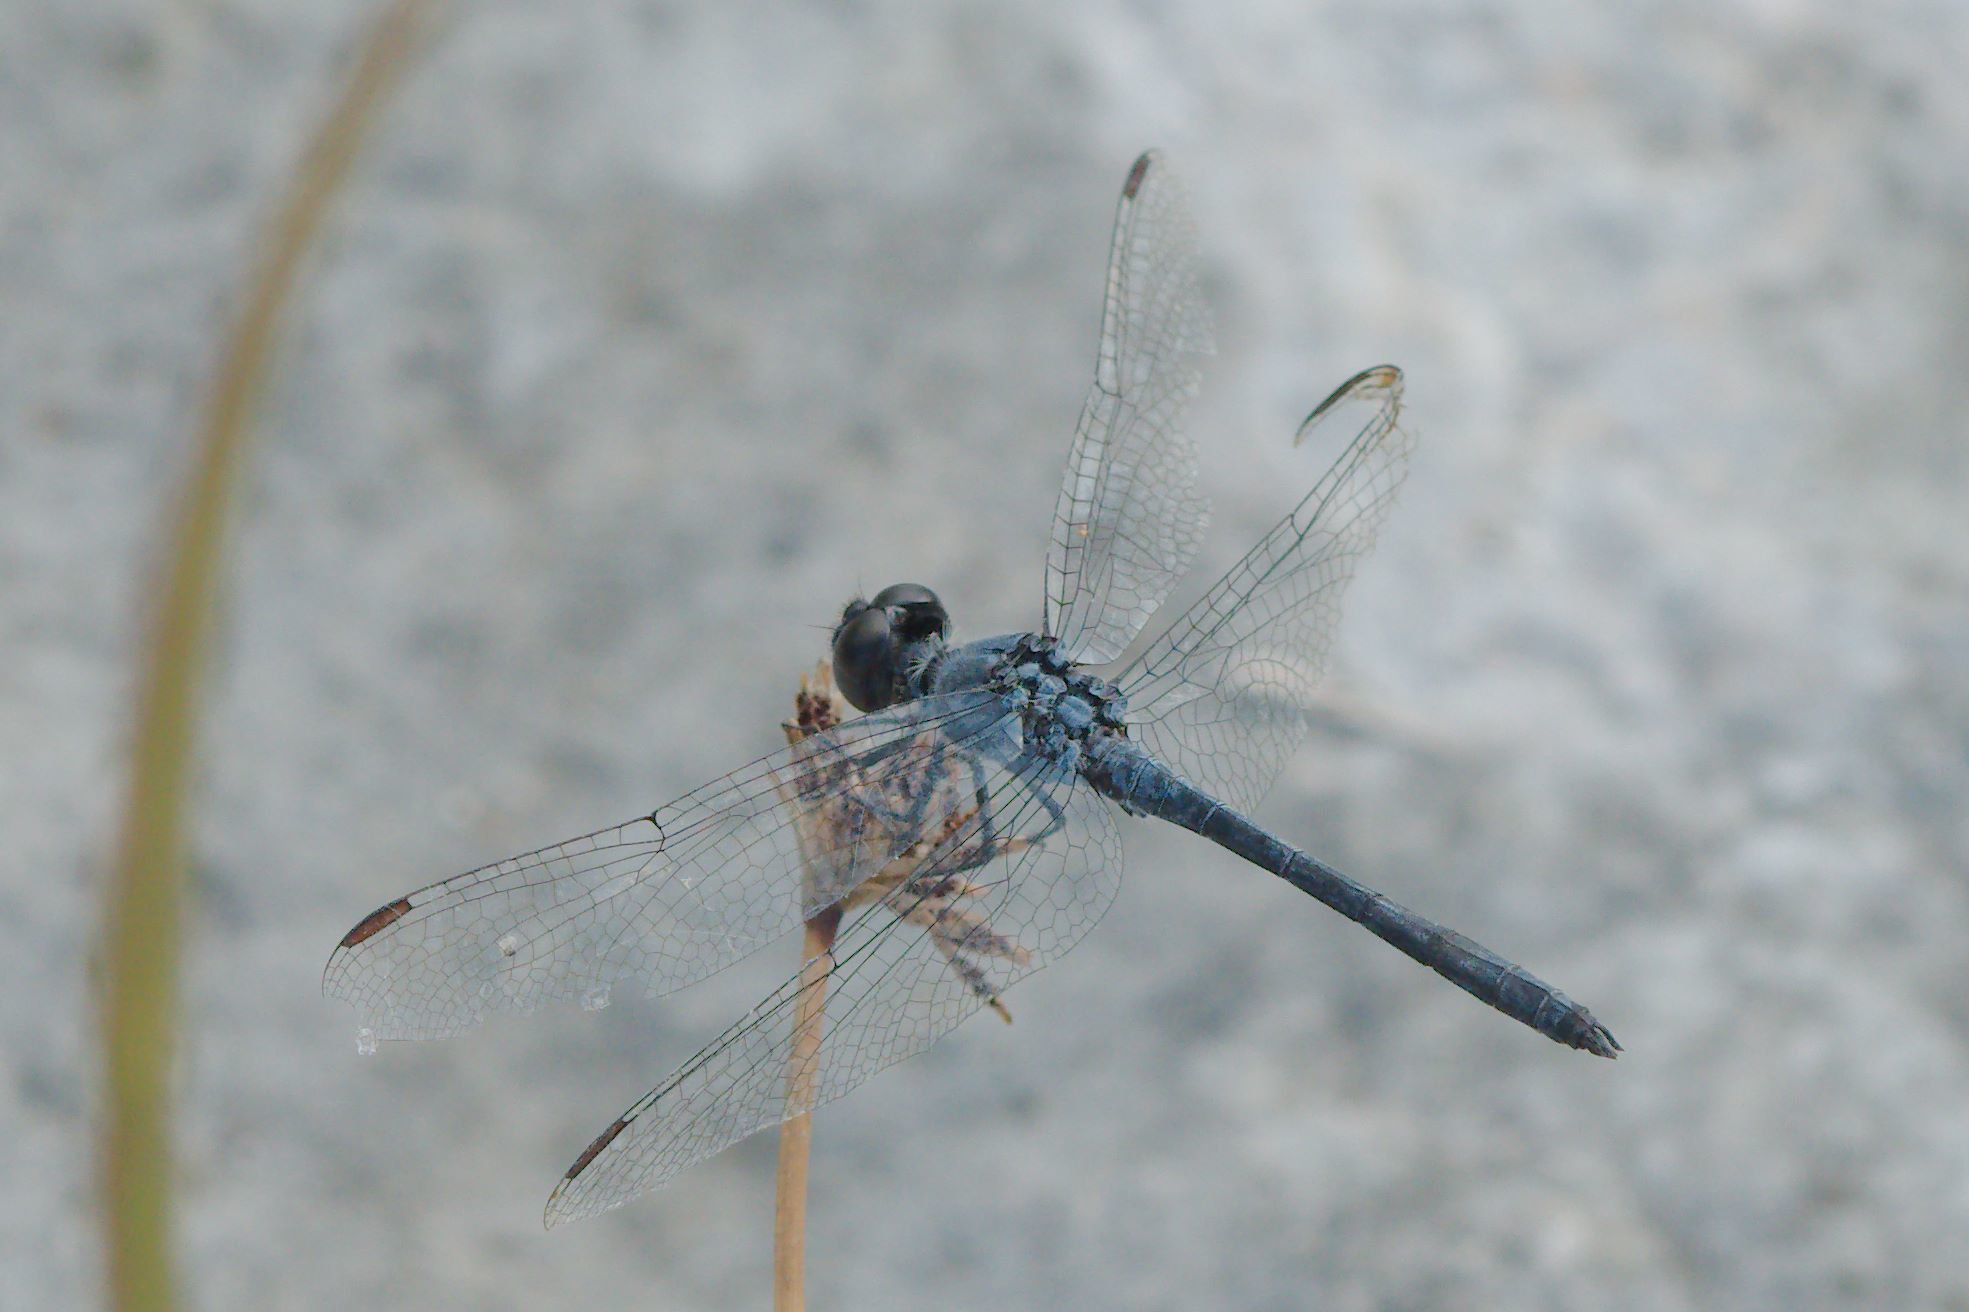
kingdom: Animalia
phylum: Arthropoda
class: Insecta
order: Odonata
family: Libellulidae
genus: Erythrodiplax
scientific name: Erythrodiplax berenice
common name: Seaside dragonlet
